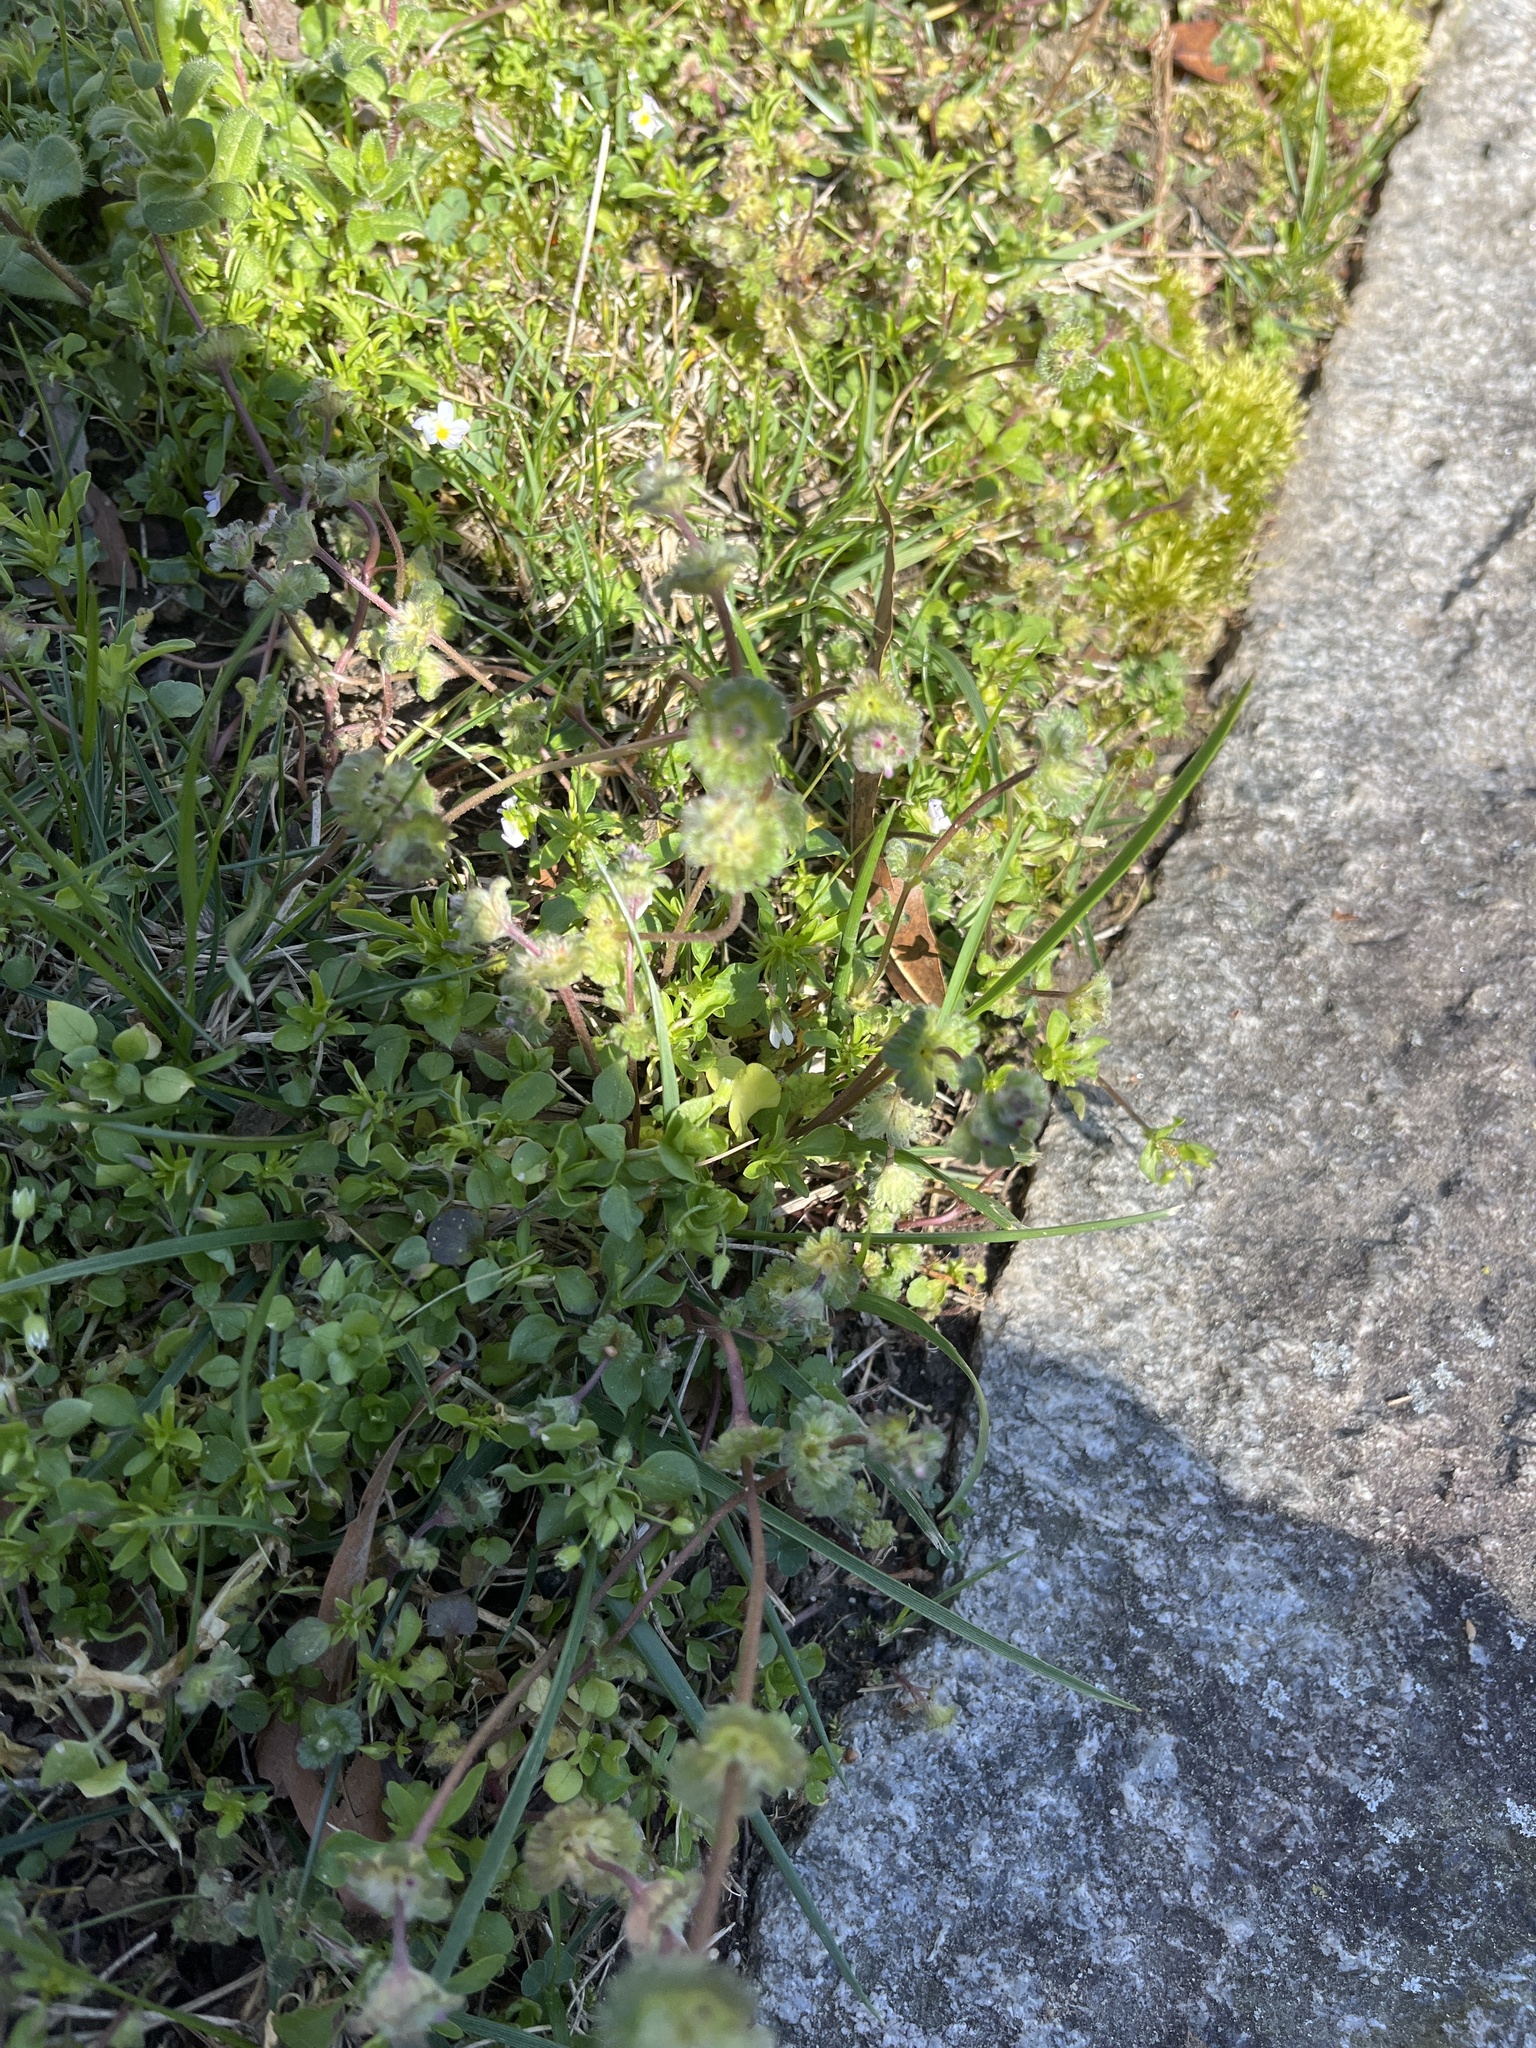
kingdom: Plantae
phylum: Tracheophyta
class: Magnoliopsida
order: Lamiales
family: Lamiaceae
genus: Lamium
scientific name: Lamium amplexicaule
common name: Henbit dead-nettle
